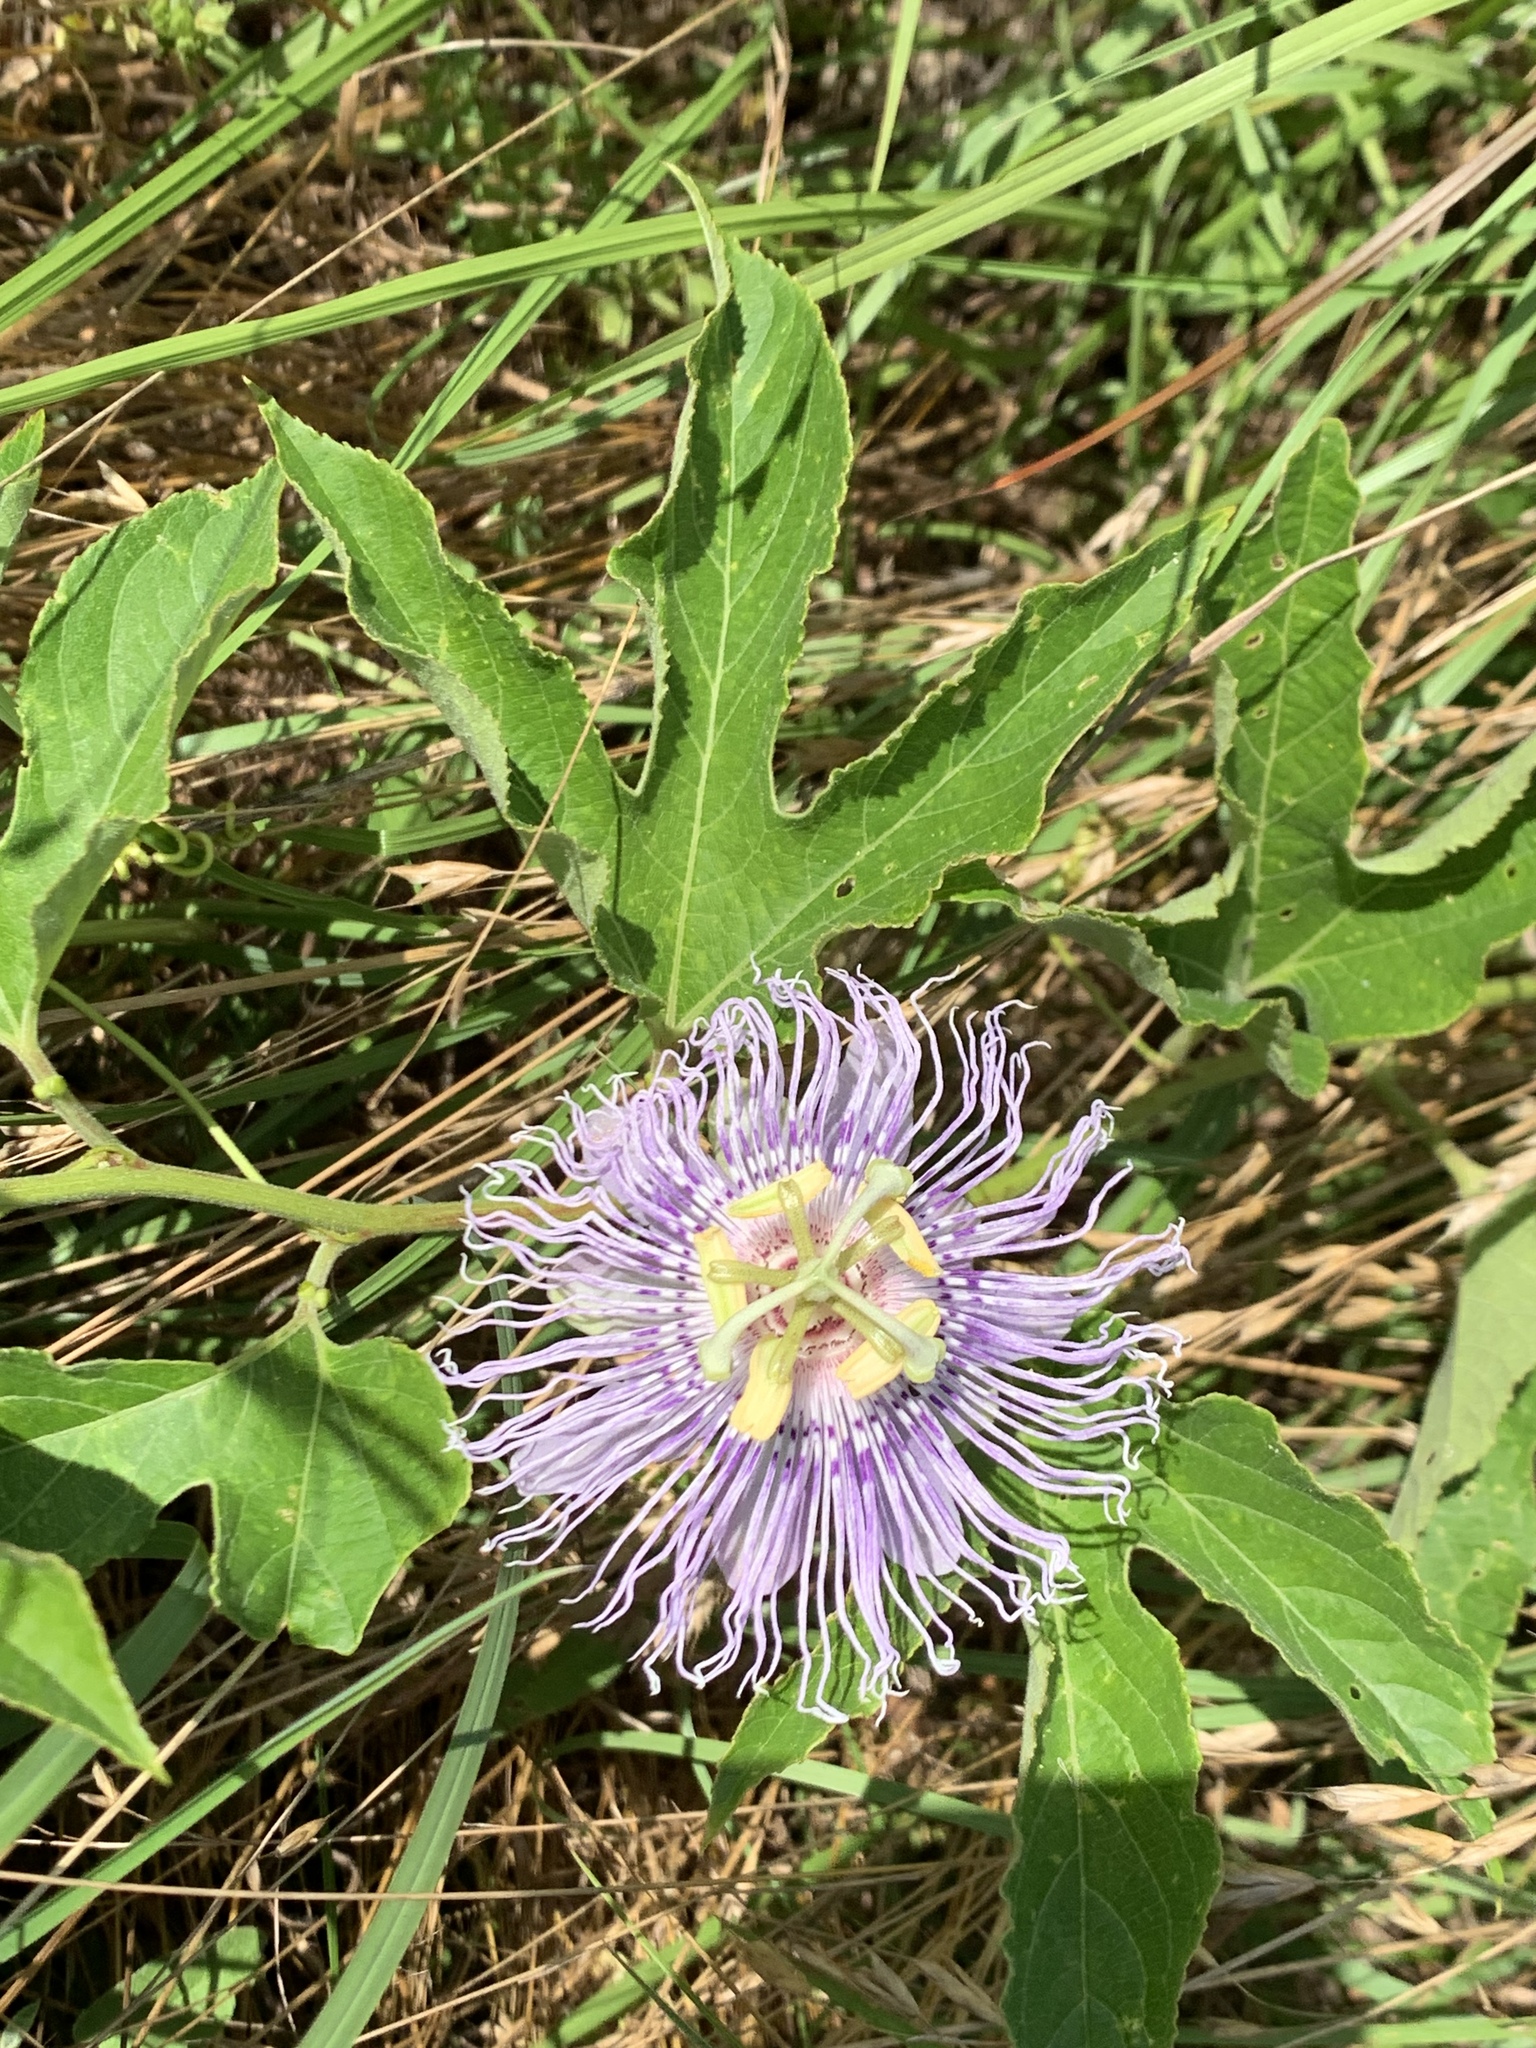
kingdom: Plantae
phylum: Tracheophyta
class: Magnoliopsida
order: Malpighiales
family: Passifloraceae
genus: Passiflora
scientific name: Passiflora incarnata
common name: Apricot-vine
